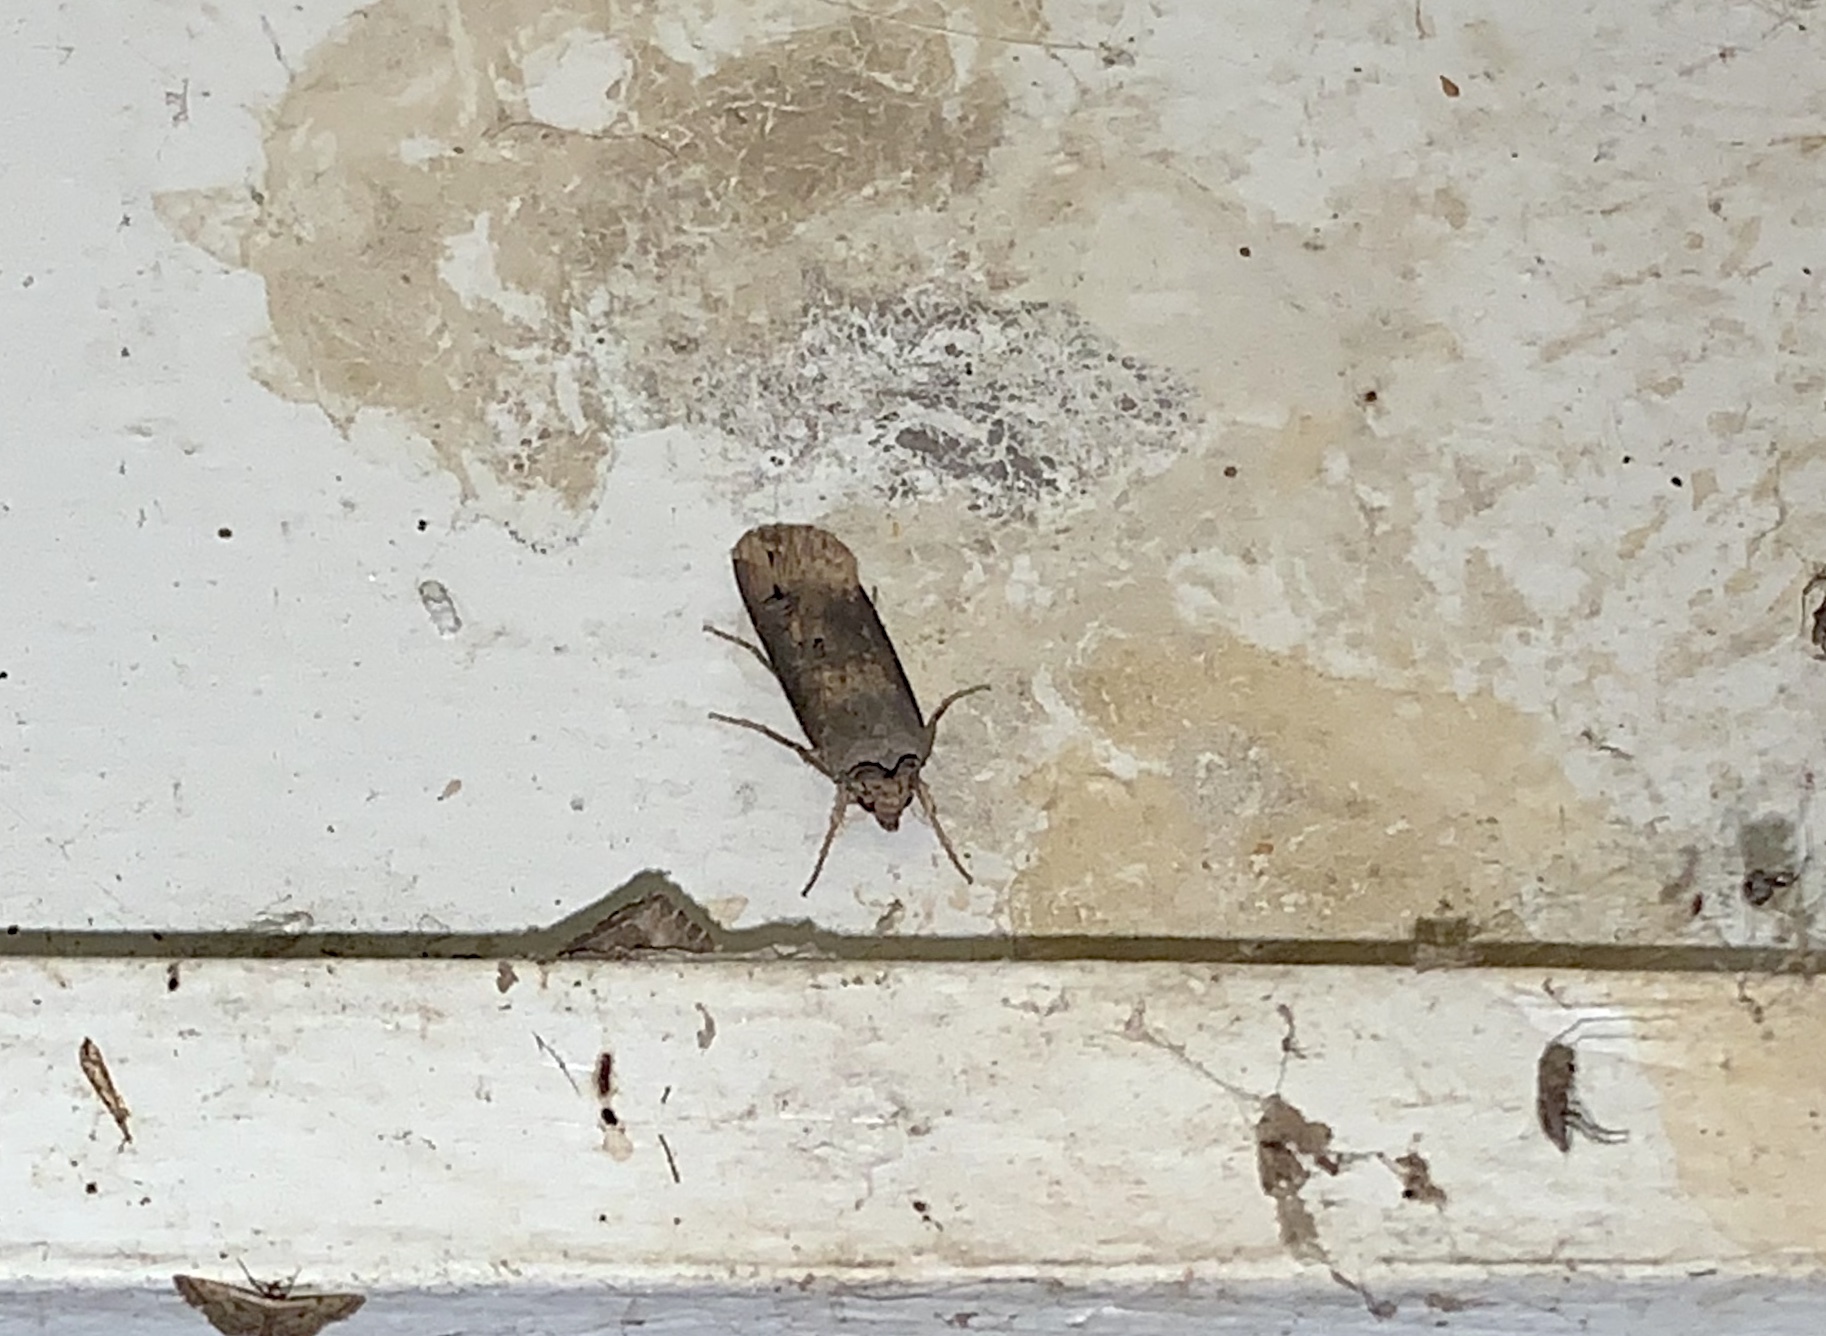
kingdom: Animalia
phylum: Arthropoda
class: Insecta
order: Lepidoptera
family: Noctuidae
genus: Agrotis
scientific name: Agrotis ipsilon
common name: Dark sword-grass
